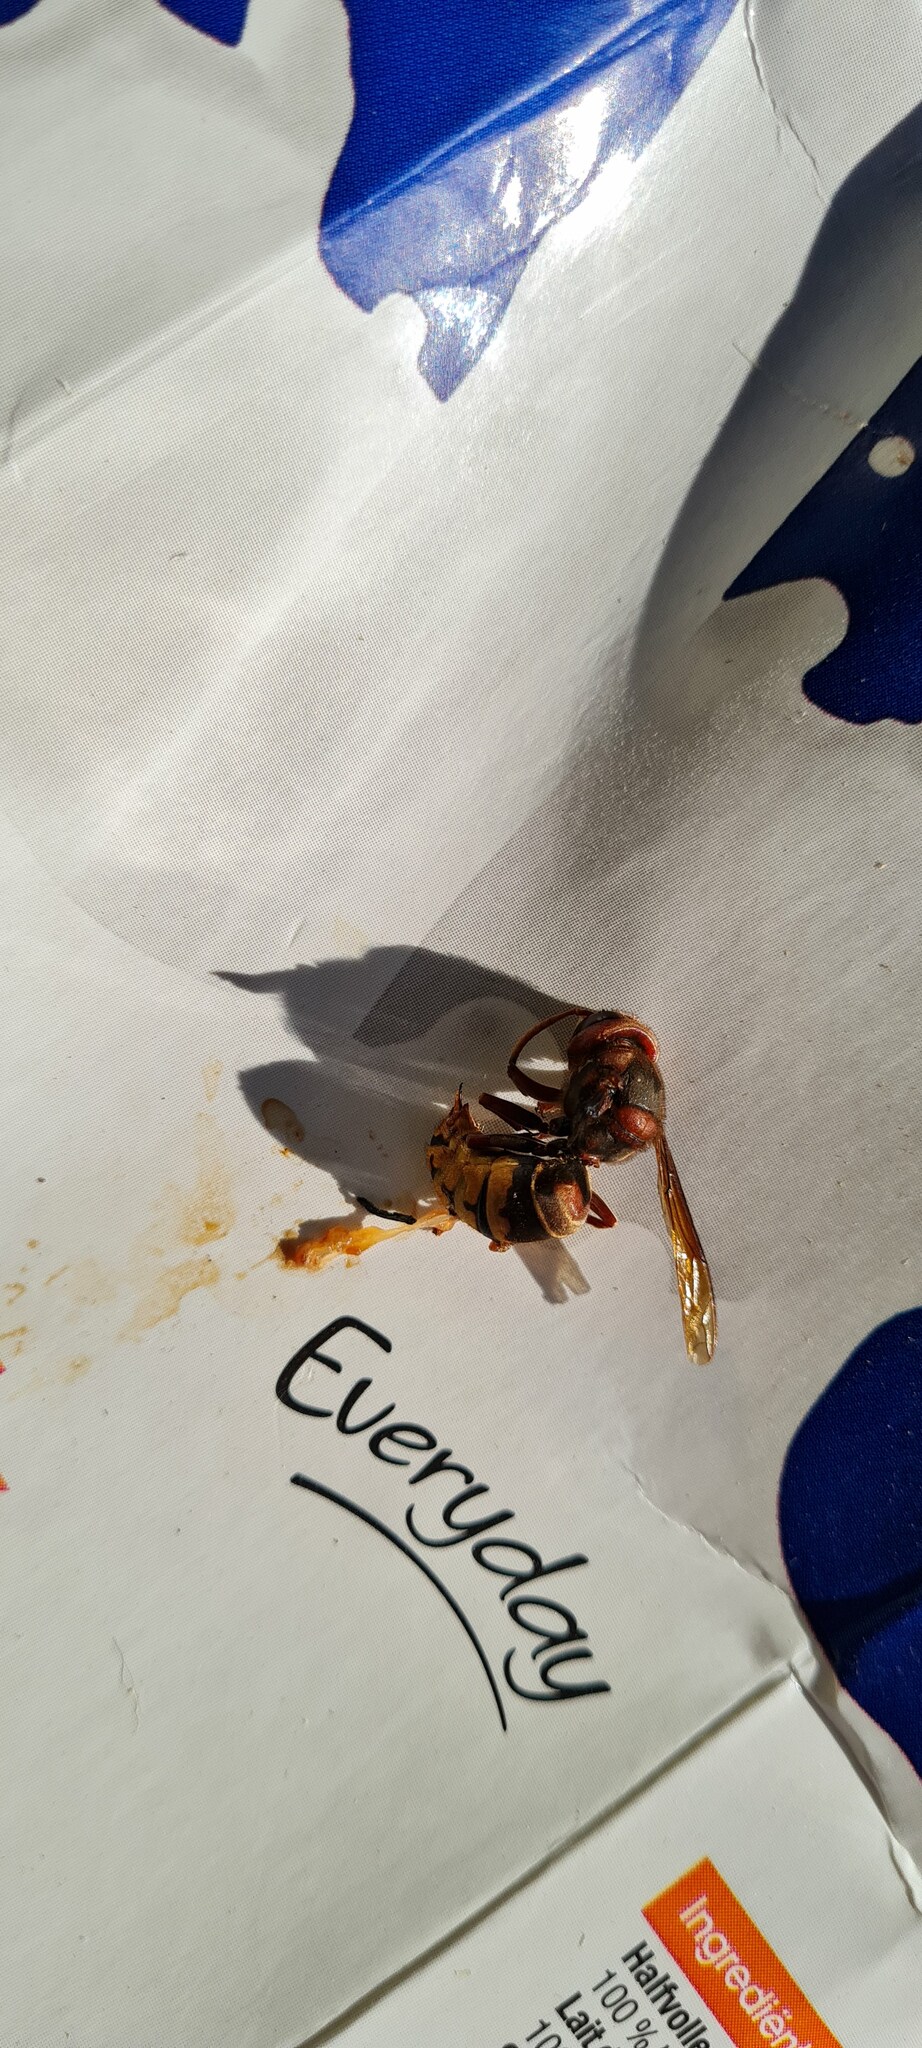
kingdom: Animalia
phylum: Arthropoda
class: Insecta
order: Hymenoptera
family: Vespidae
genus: Vespa
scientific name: Vespa crabro
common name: Hornet
